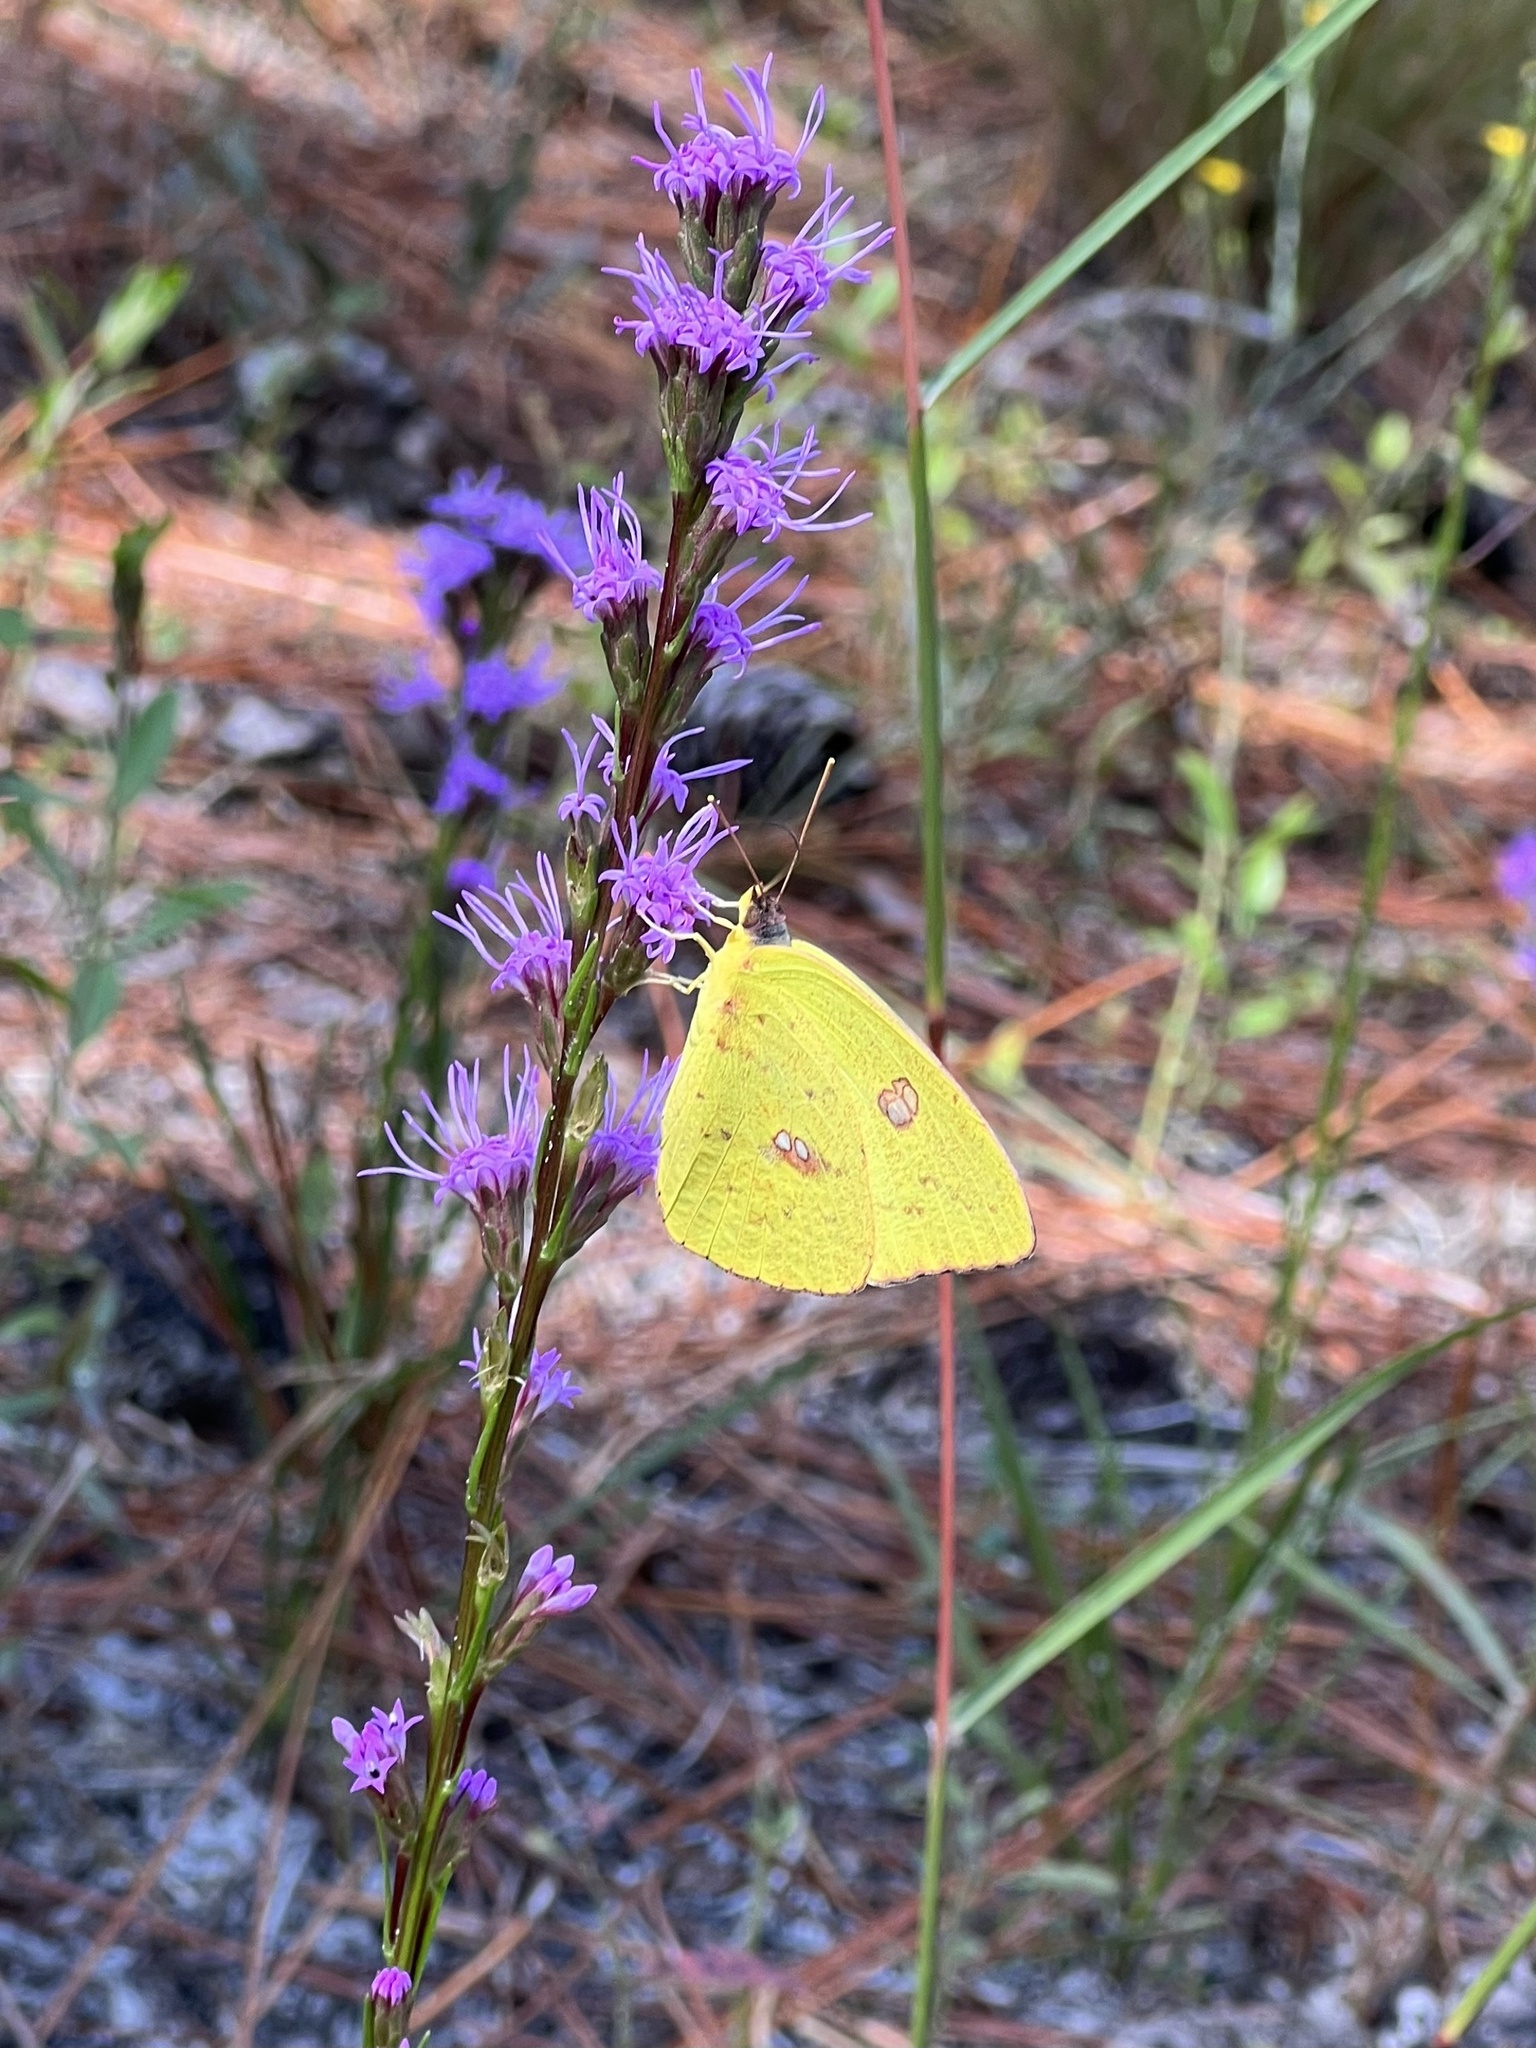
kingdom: Animalia
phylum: Arthropoda
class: Insecta
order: Lepidoptera
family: Pieridae
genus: Phoebis
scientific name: Phoebis sennae
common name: Cloudless sulphur
